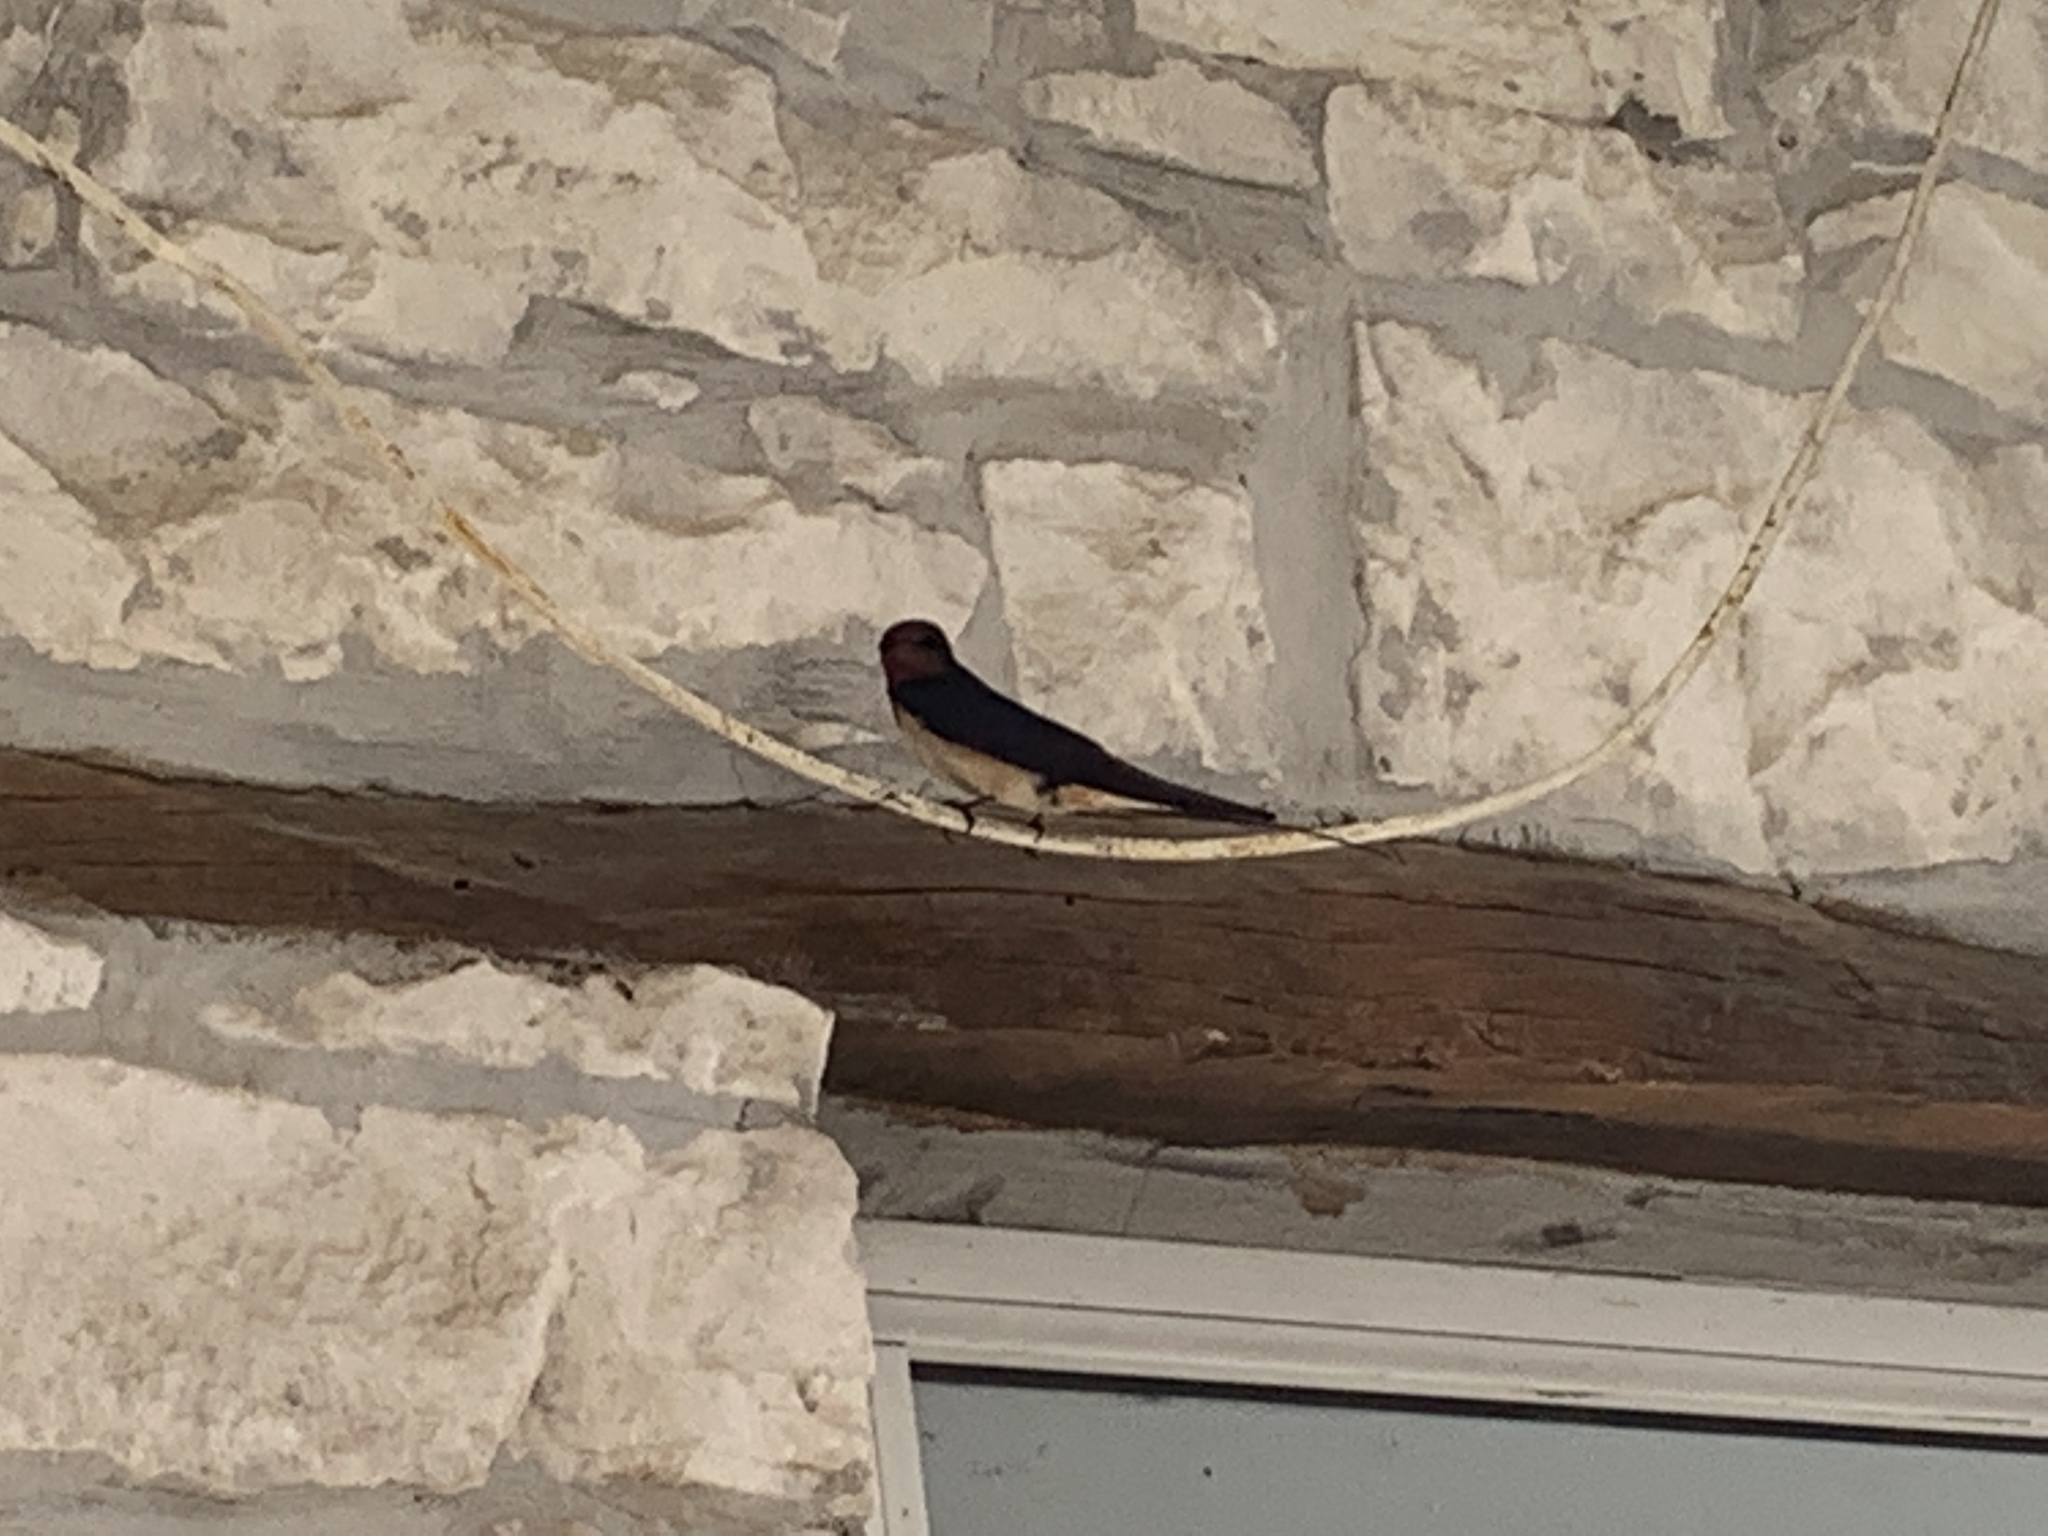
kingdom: Animalia
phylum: Chordata
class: Aves
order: Passeriformes
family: Hirundinidae
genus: Hirundo
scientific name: Hirundo rustica
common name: Barn swallow
